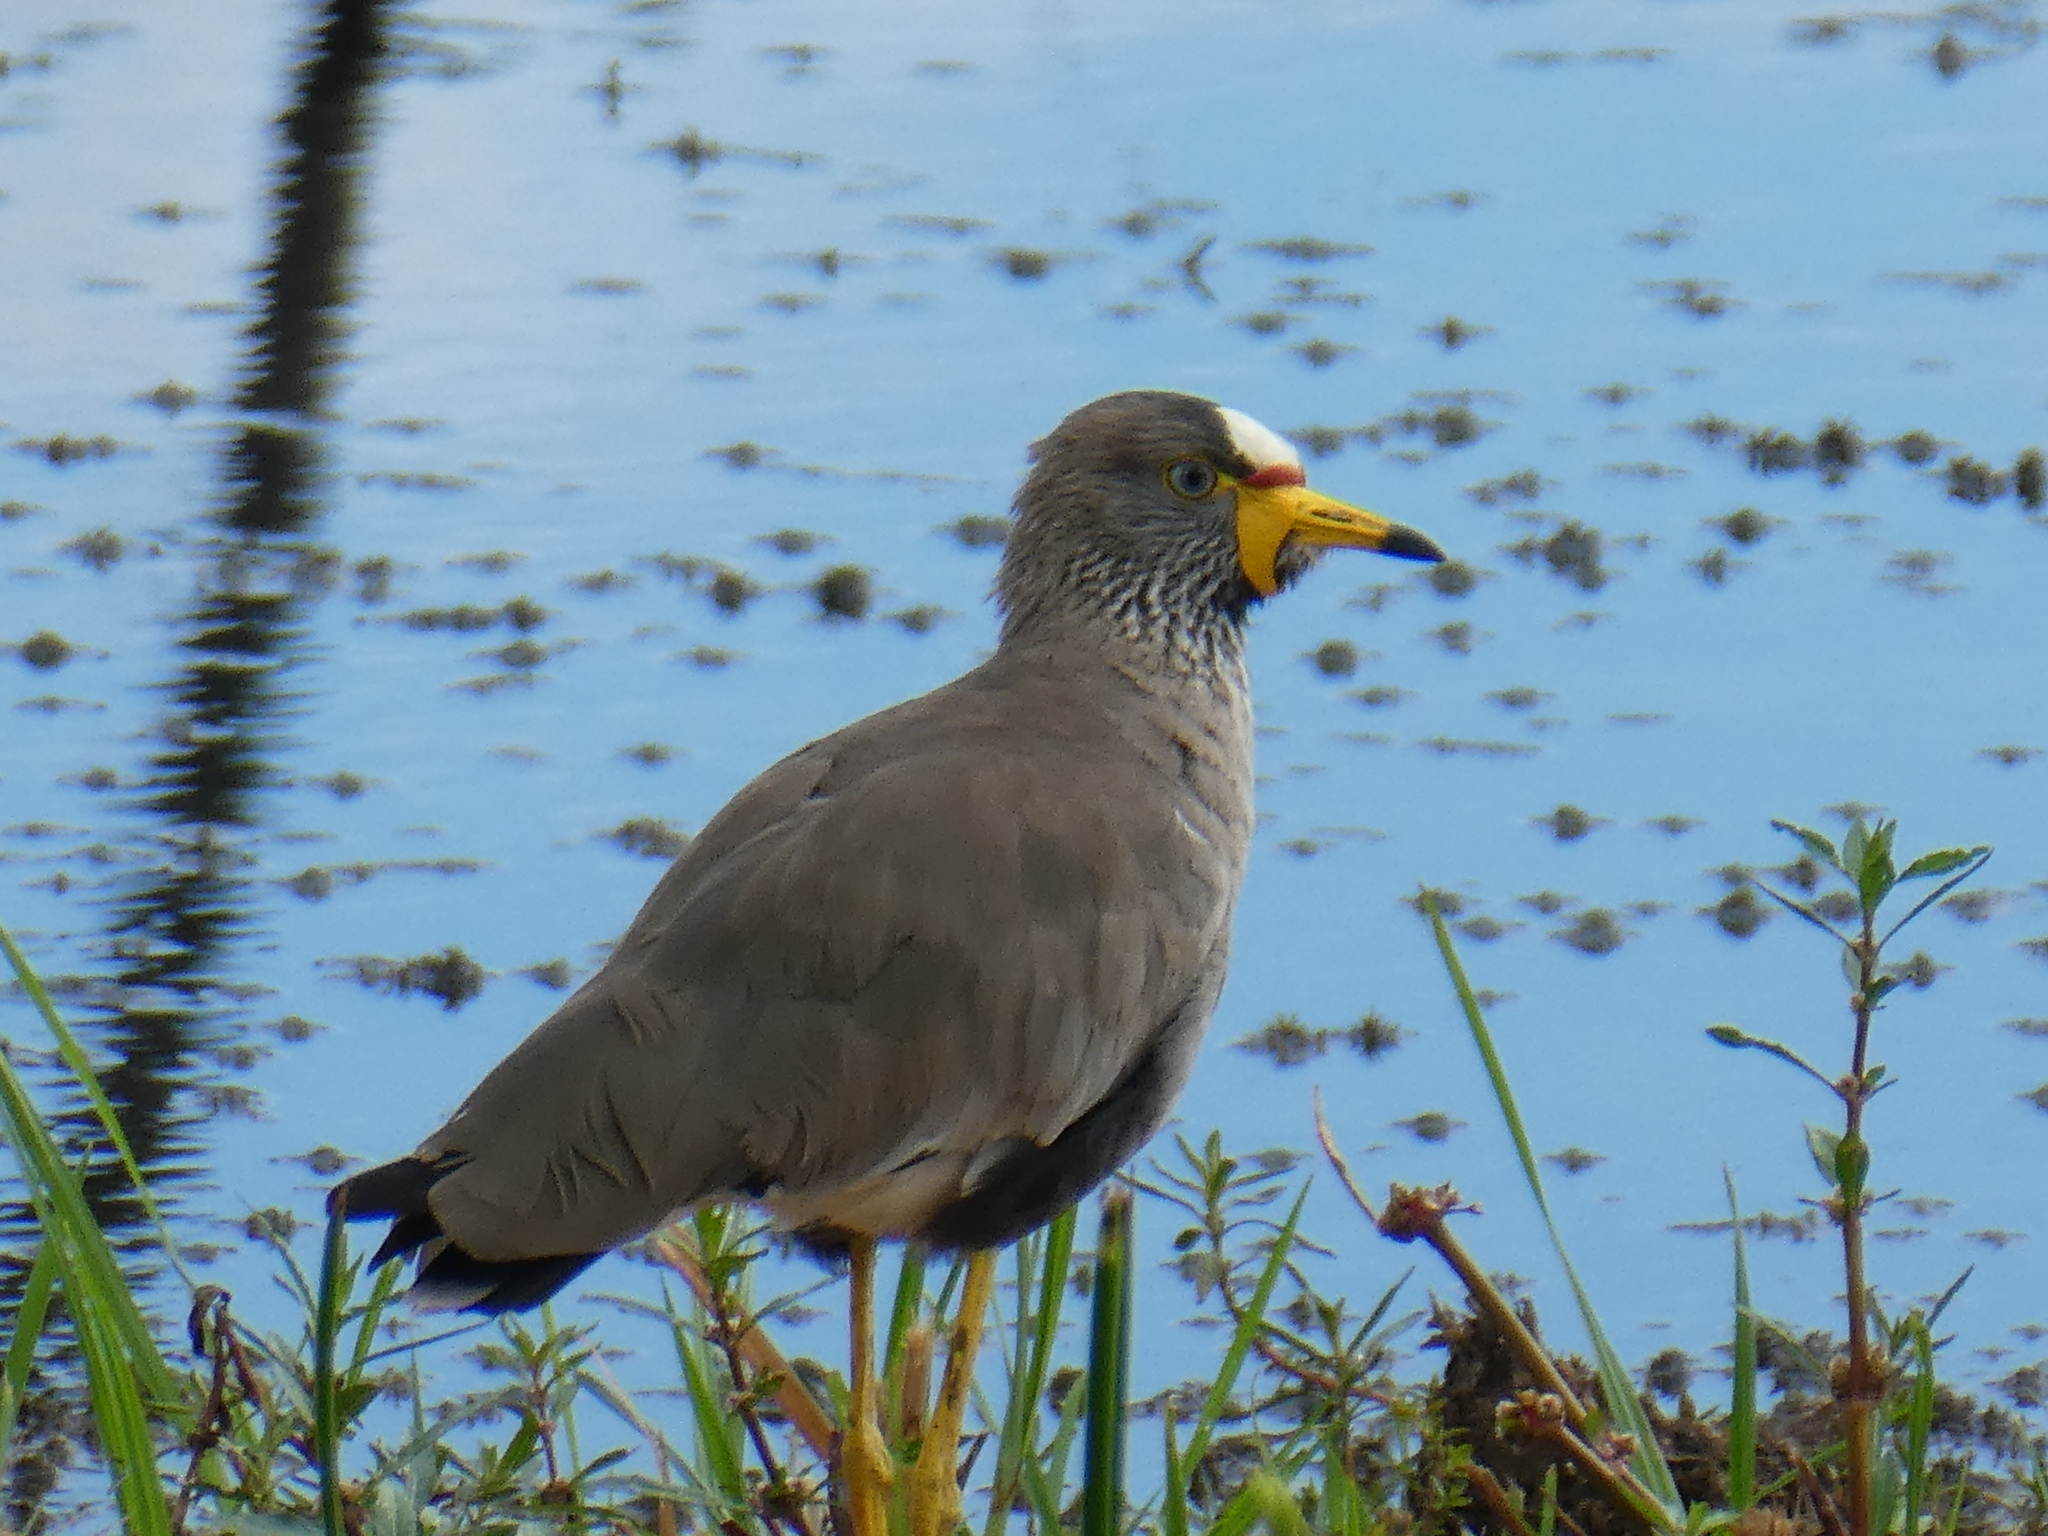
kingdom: Animalia
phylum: Chordata
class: Aves
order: Charadriiformes
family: Charadriidae
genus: Vanellus
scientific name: Vanellus senegallus
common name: African wattled lapwing
